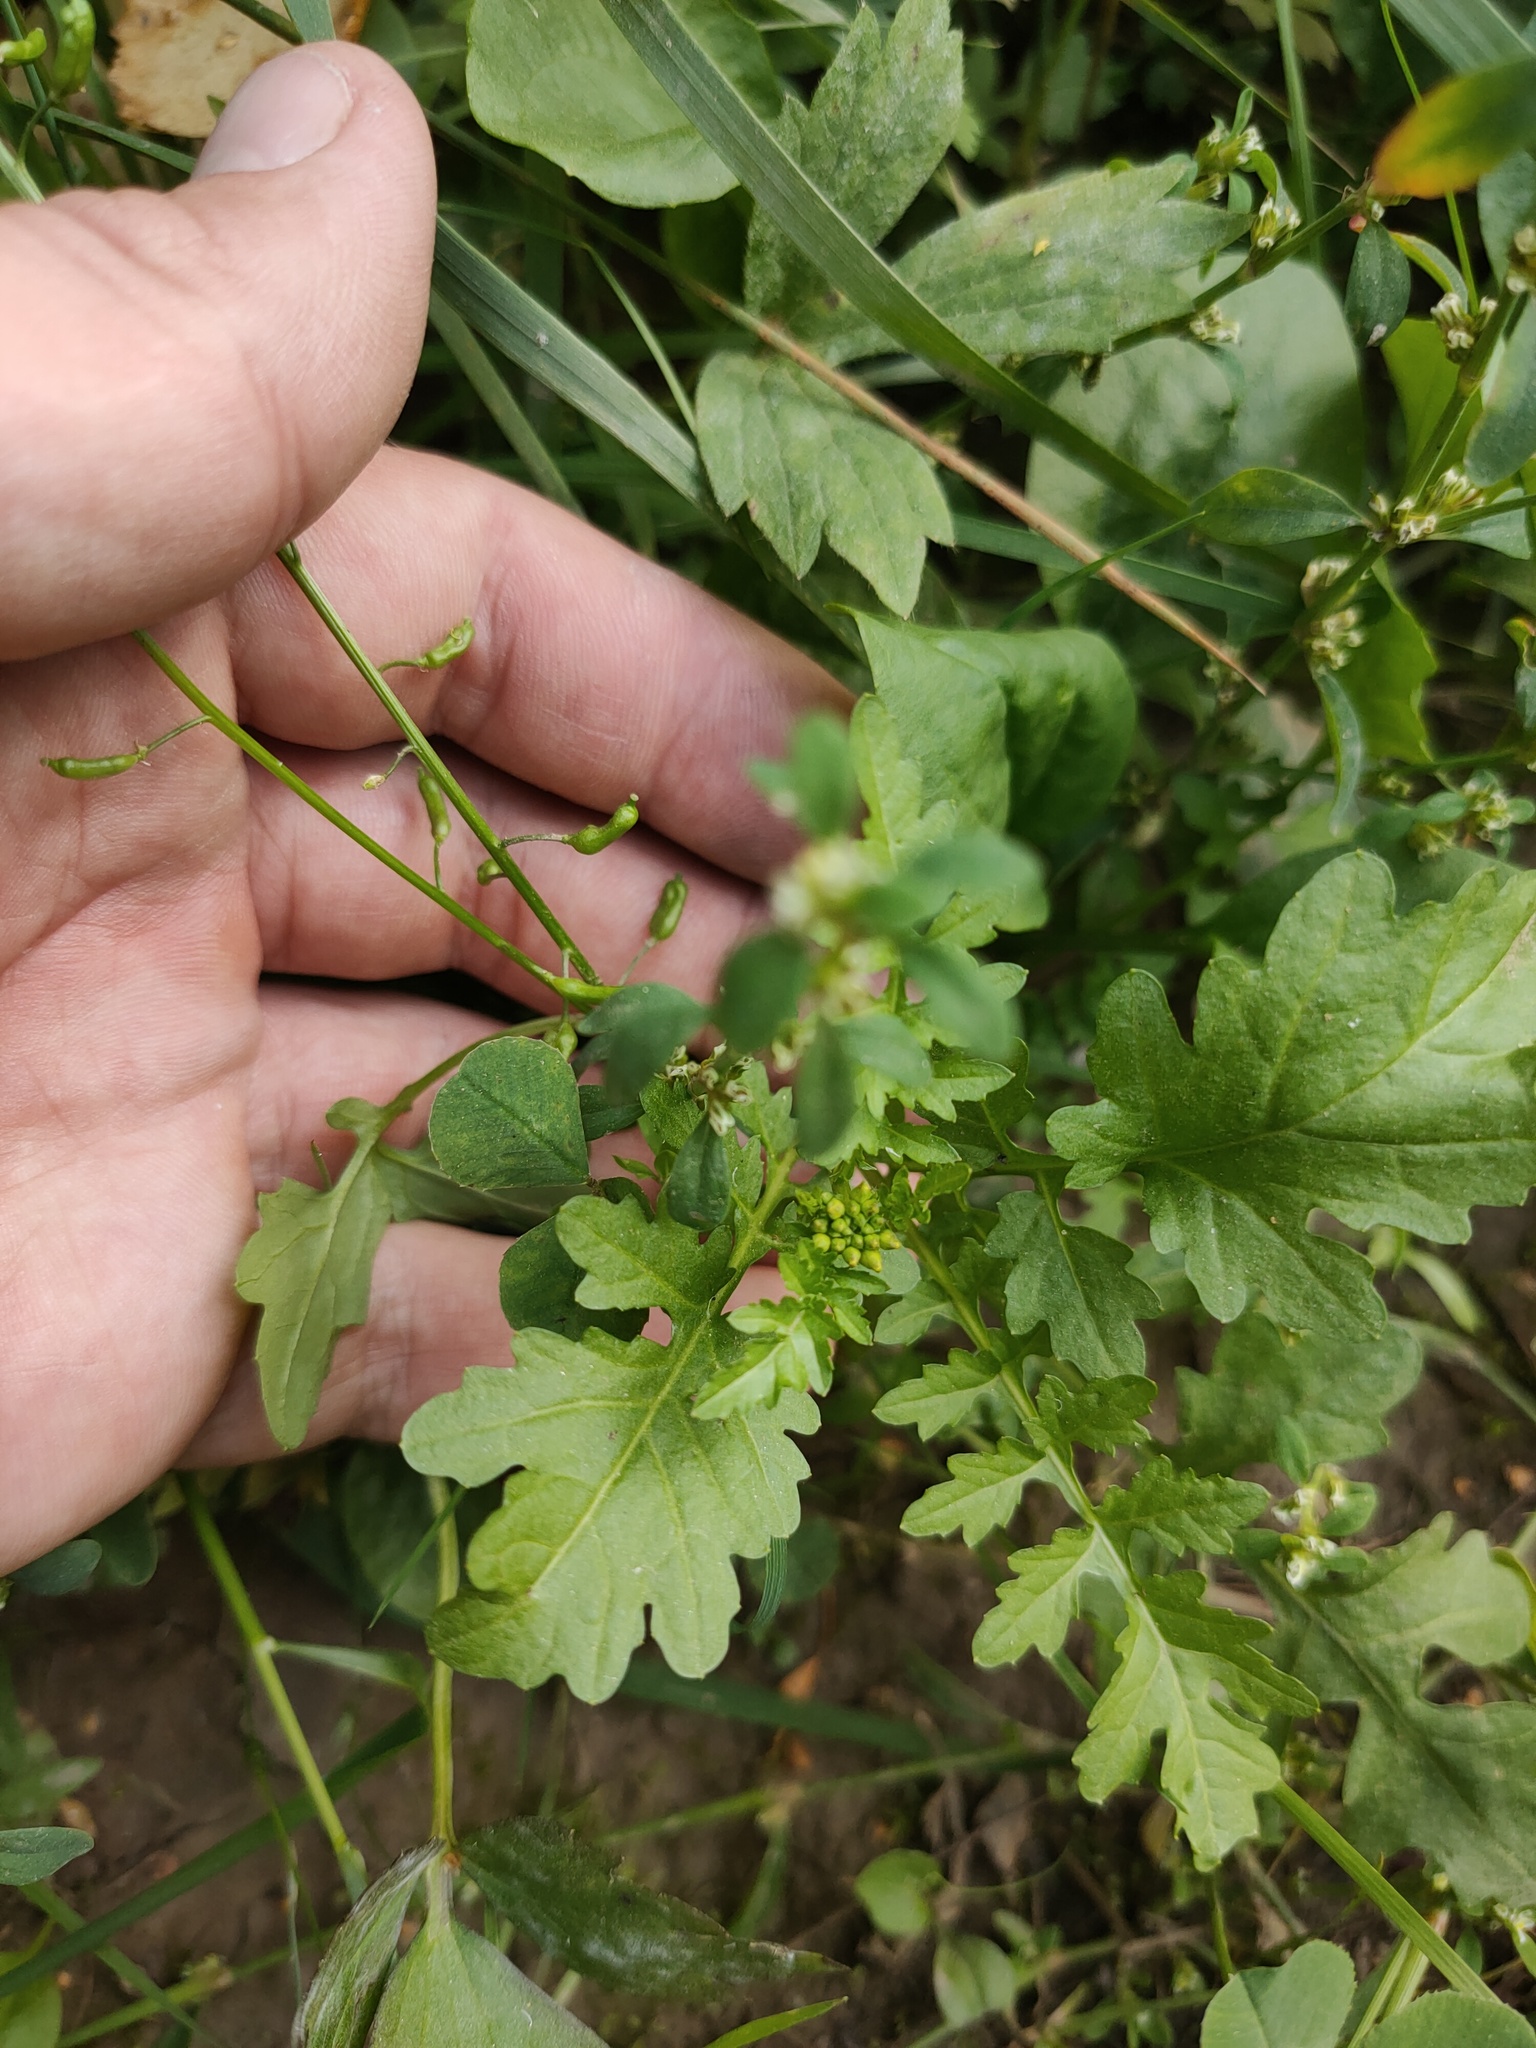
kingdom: Plantae
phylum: Tracheophyta
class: Magnoliopsida
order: Brassicales
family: Brassicaceae
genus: Rorippa
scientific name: Rorippa palustris
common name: Marsh yellow-cress
